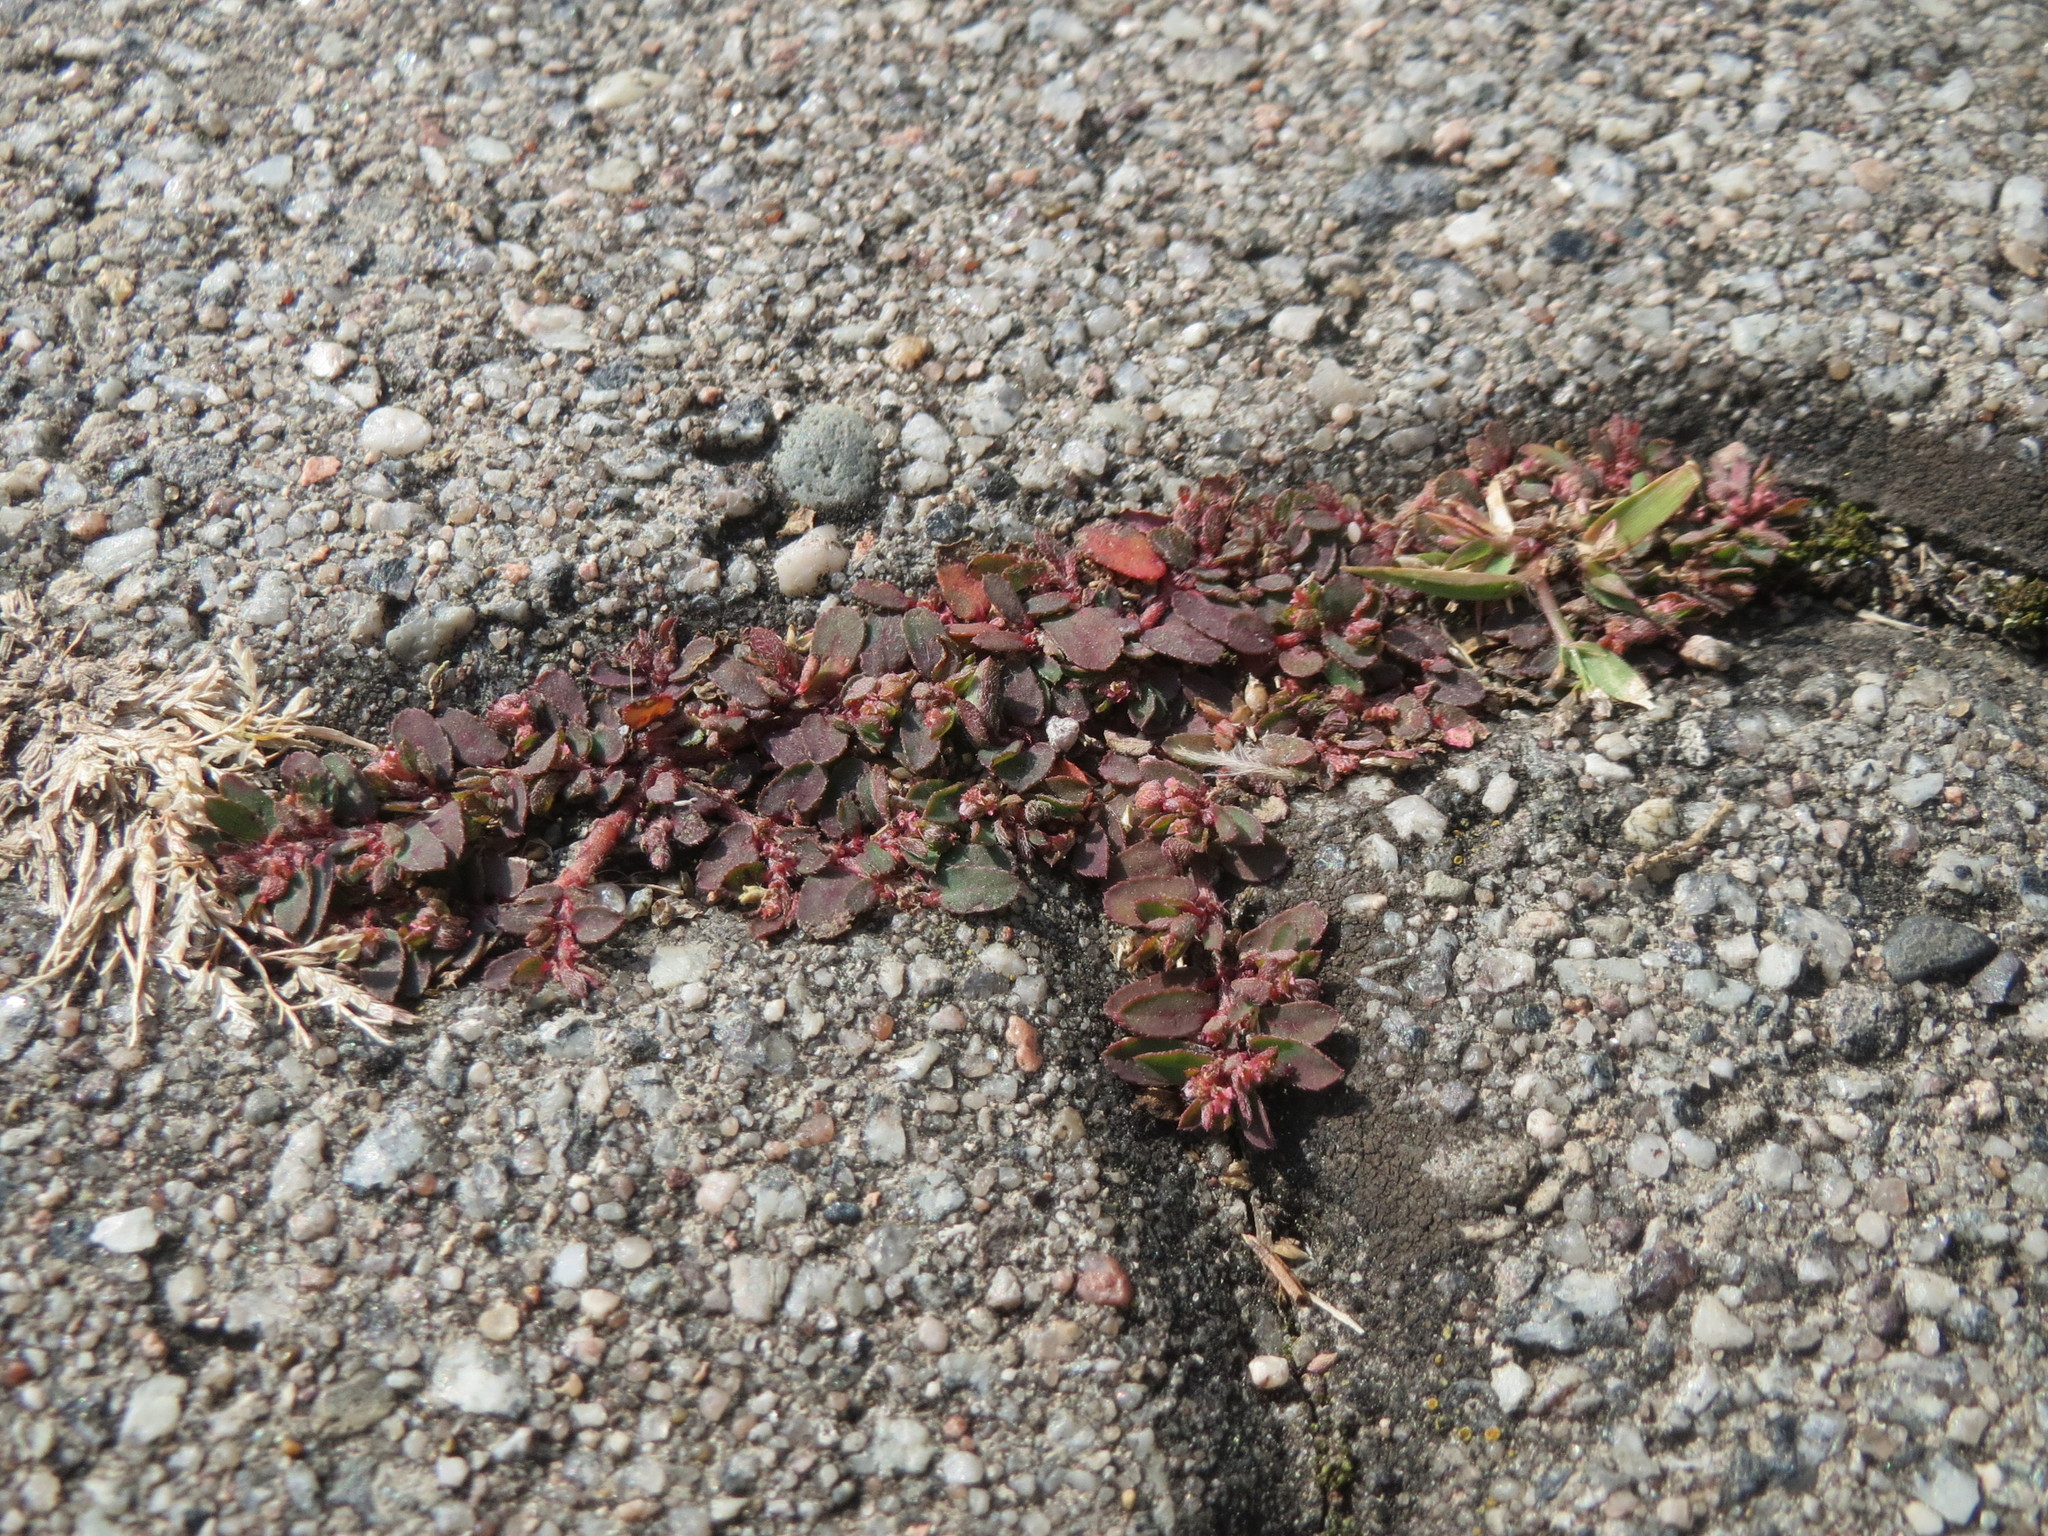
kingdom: Plantae
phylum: Tracheophyta
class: Magnoliopsida
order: Malpighiales
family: Euphorbiaceae
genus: Euphorbia
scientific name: Euphorbia maculata
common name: Spotted spurge
